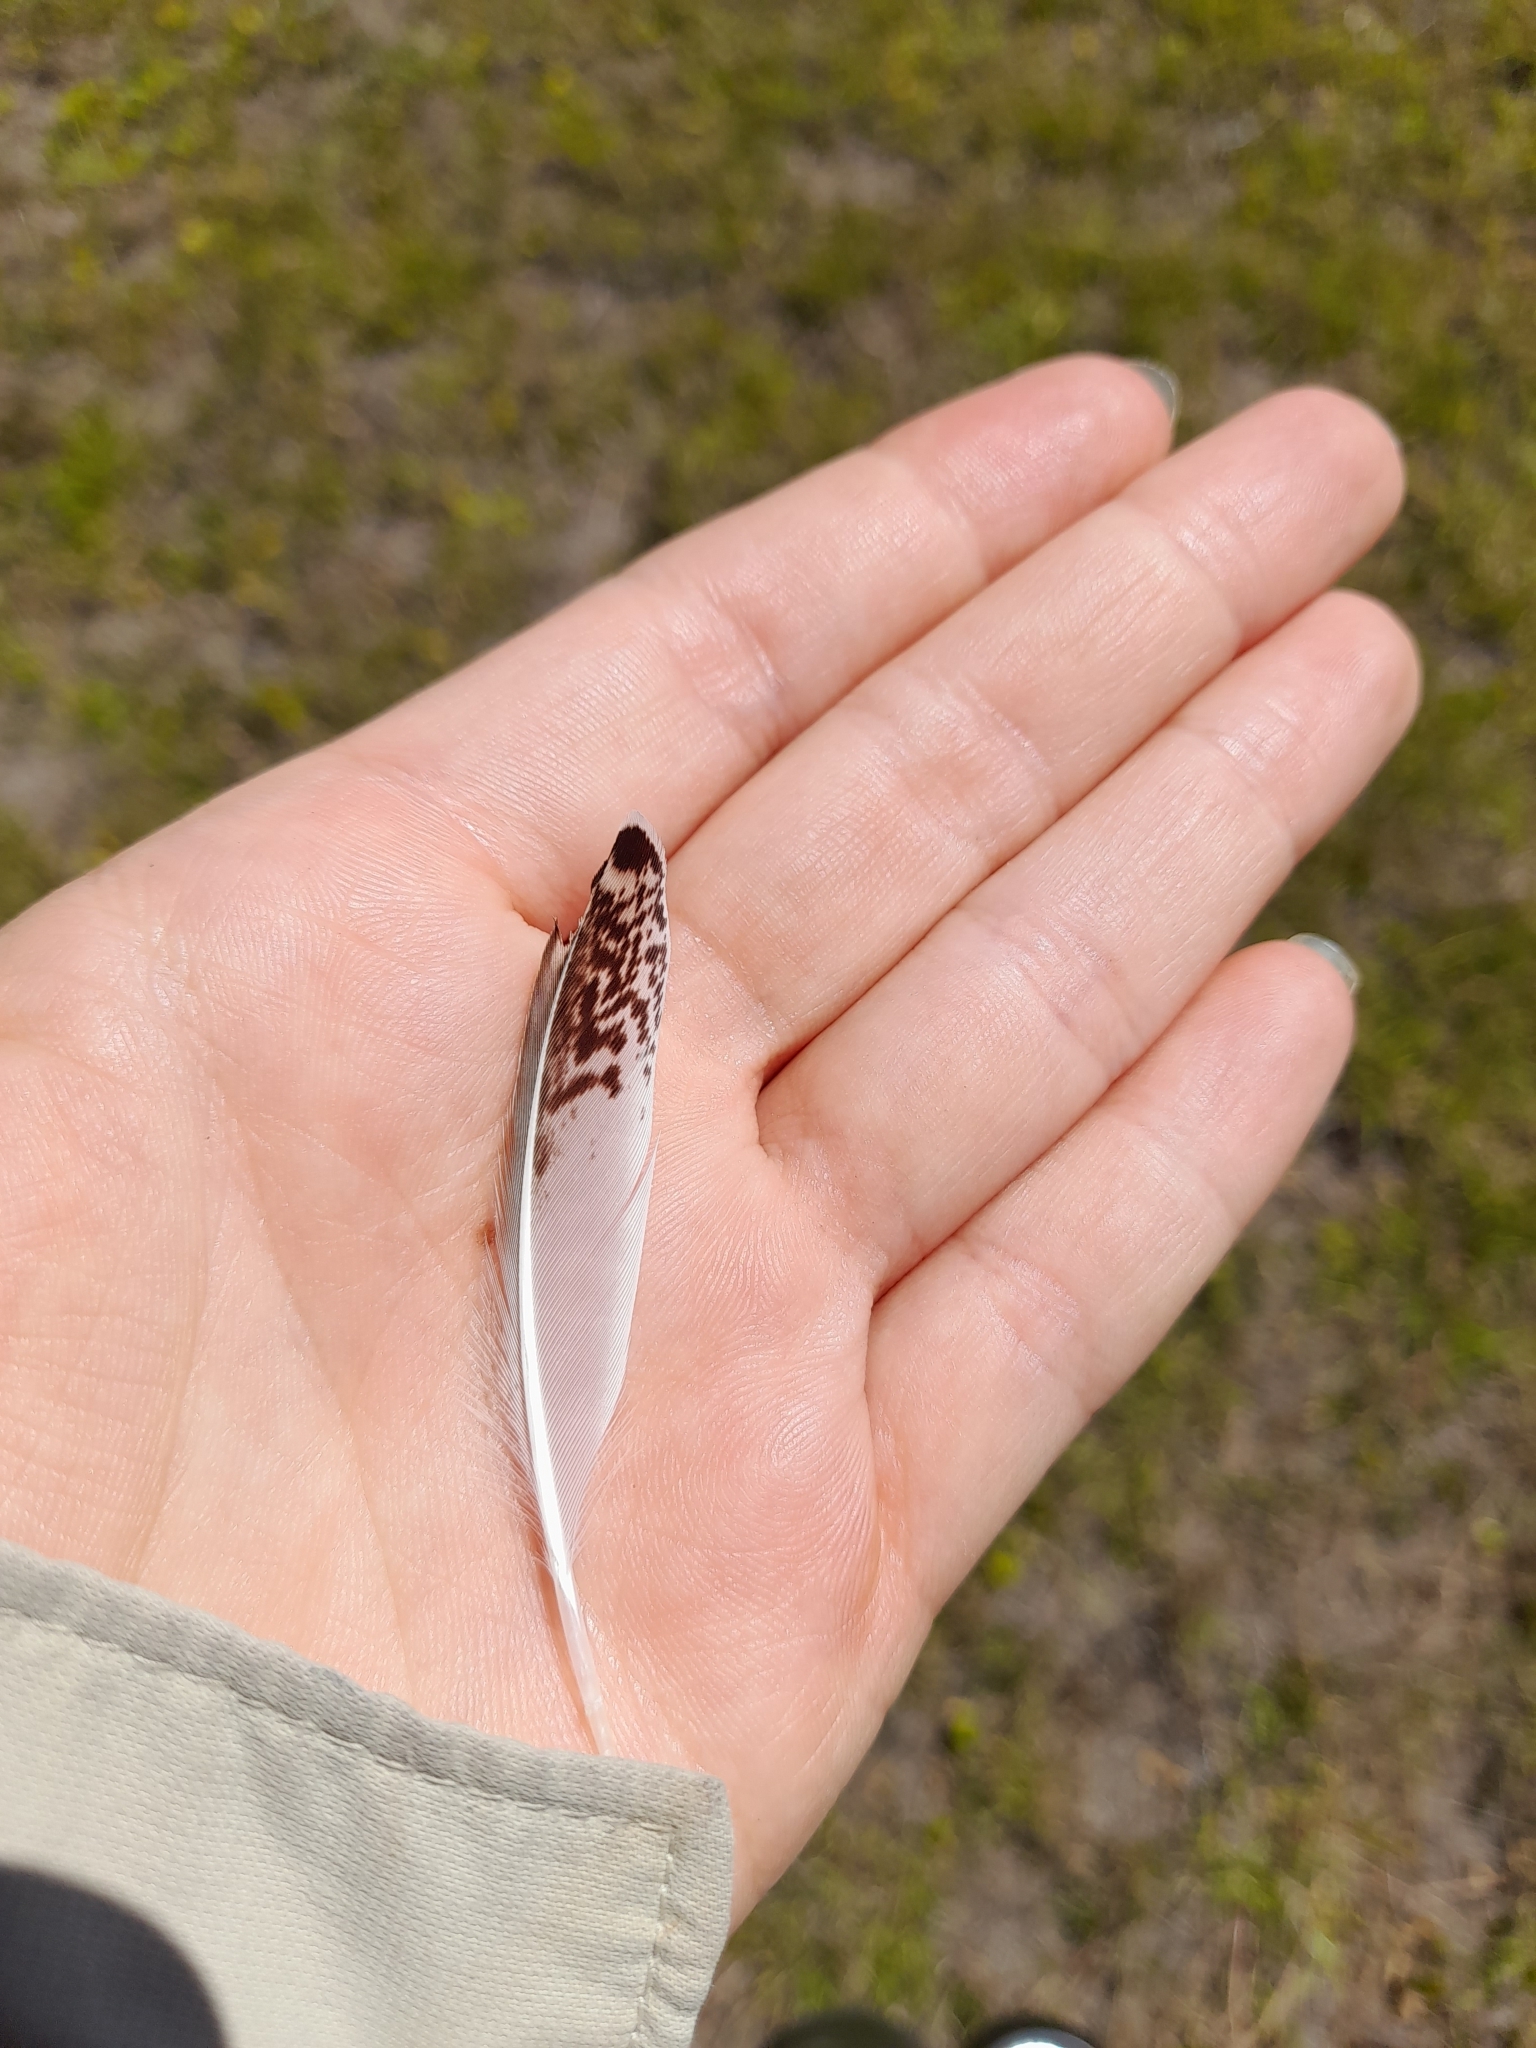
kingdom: Animalia
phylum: Chordata
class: Aves
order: Charadriiformes
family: Scolopacidae
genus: Calidris
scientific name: Calidris subruficollis
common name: Buff-breasted sandpiper
